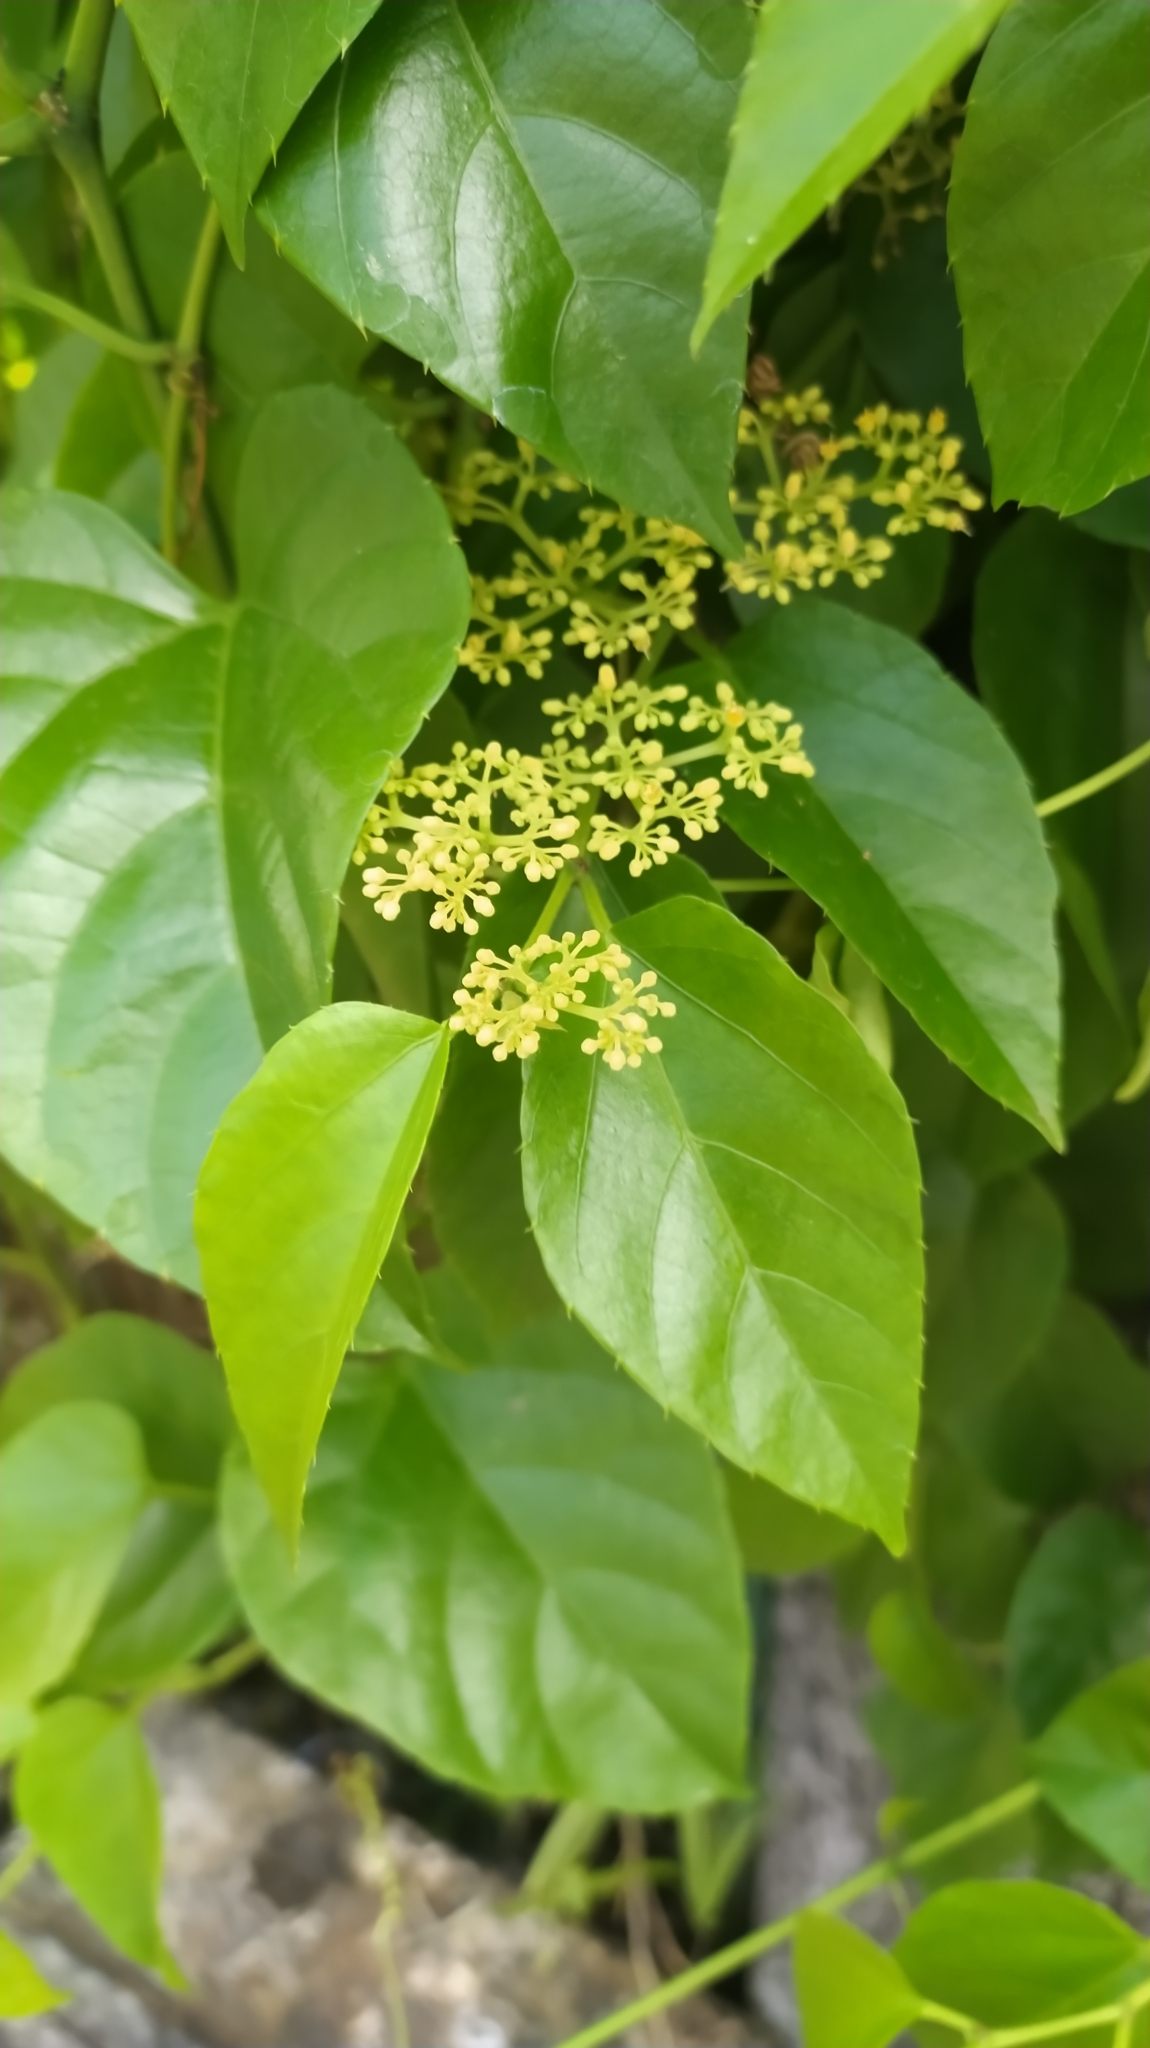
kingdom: Plantae
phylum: Tracheophyta
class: Magnoliopsida
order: Vitales
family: Vitaceae
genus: Cissus
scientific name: Cissus verticillata
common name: Princess vine
